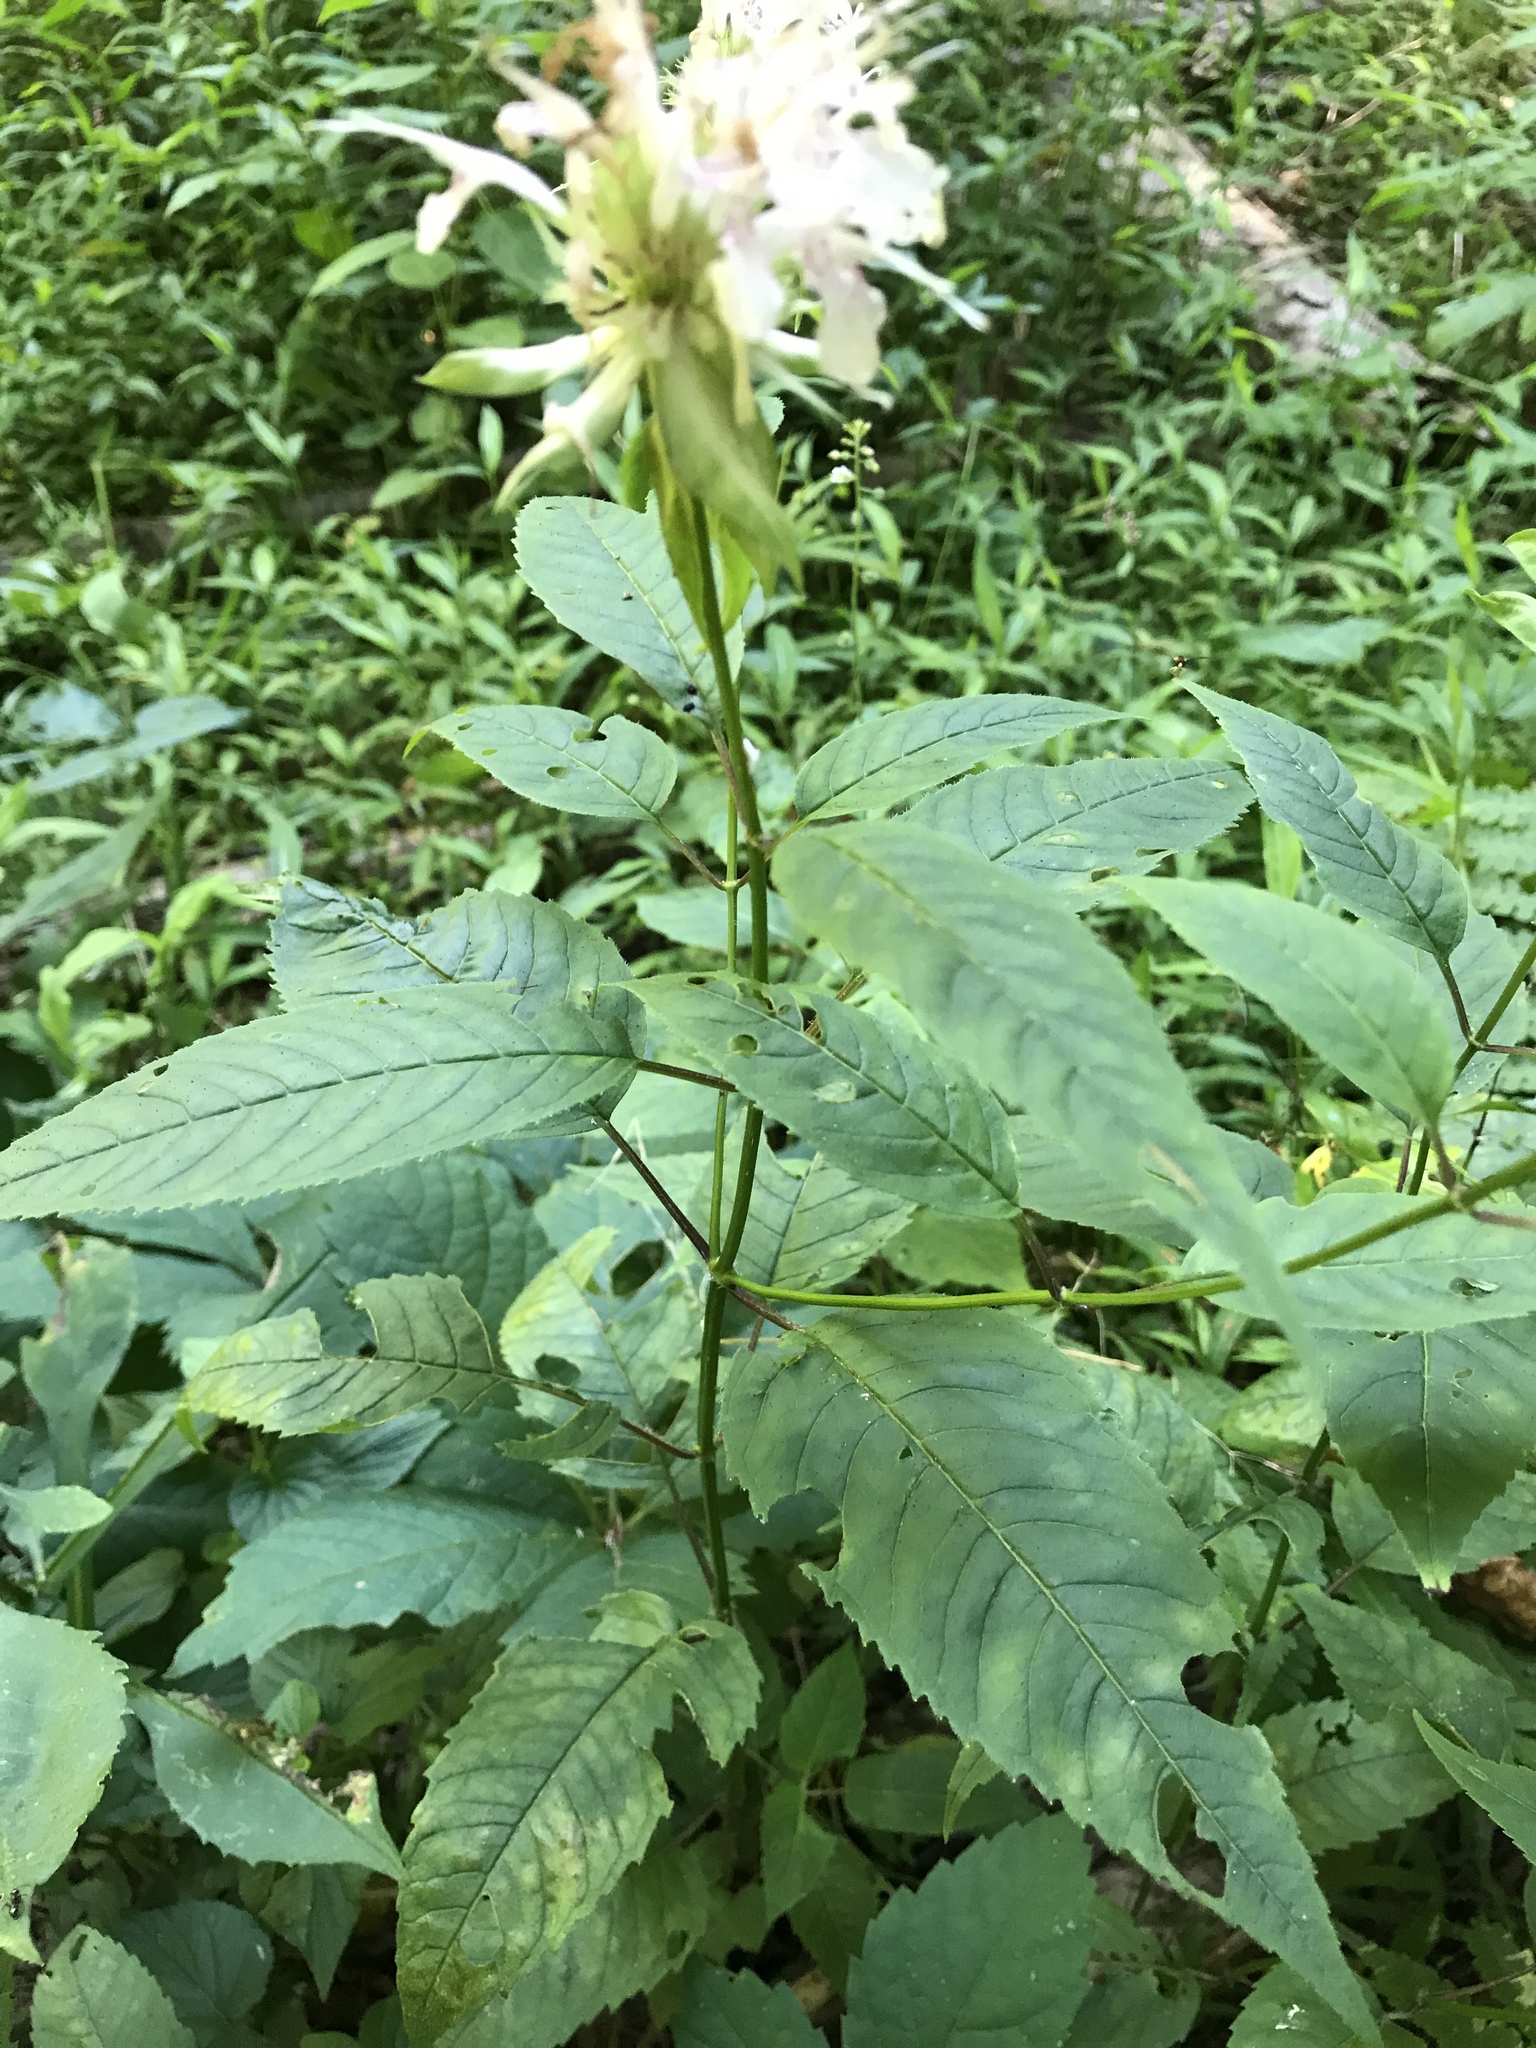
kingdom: Plantae
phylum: Tracheophyta
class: Magnoliopsida
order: Lamiales
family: Lamiaceae
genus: Monarda
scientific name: Monarda clinopodia
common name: Basil beebalm
